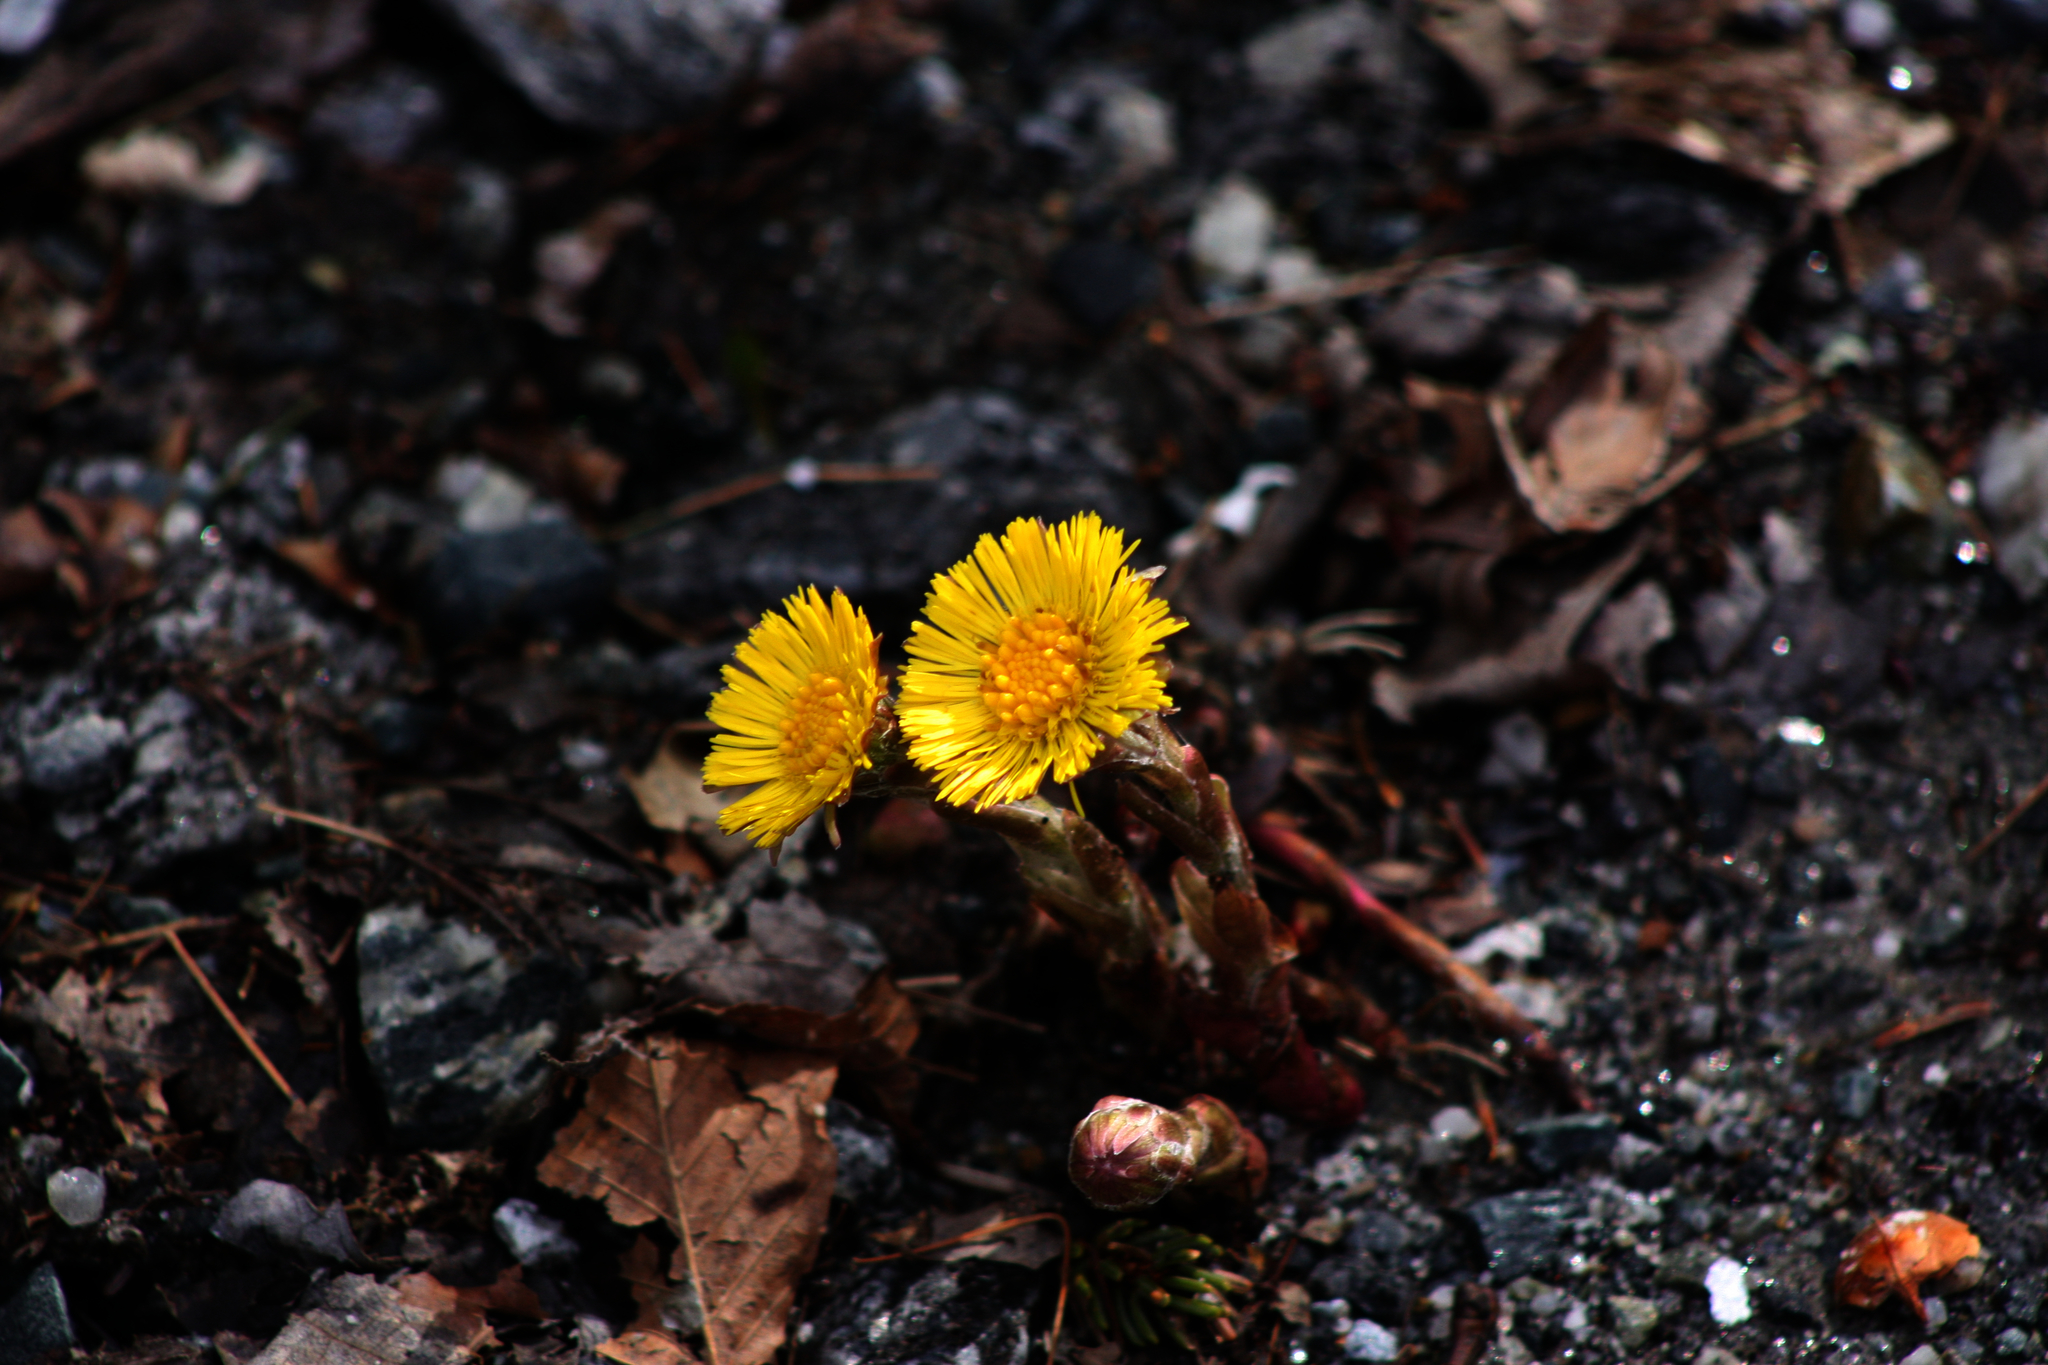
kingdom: Plantae
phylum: Tracheophyta
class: Magnoliopsida
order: Asterales
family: Asteraceae
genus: Tussilago
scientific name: Tussilago farfara
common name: Coltsfoot
